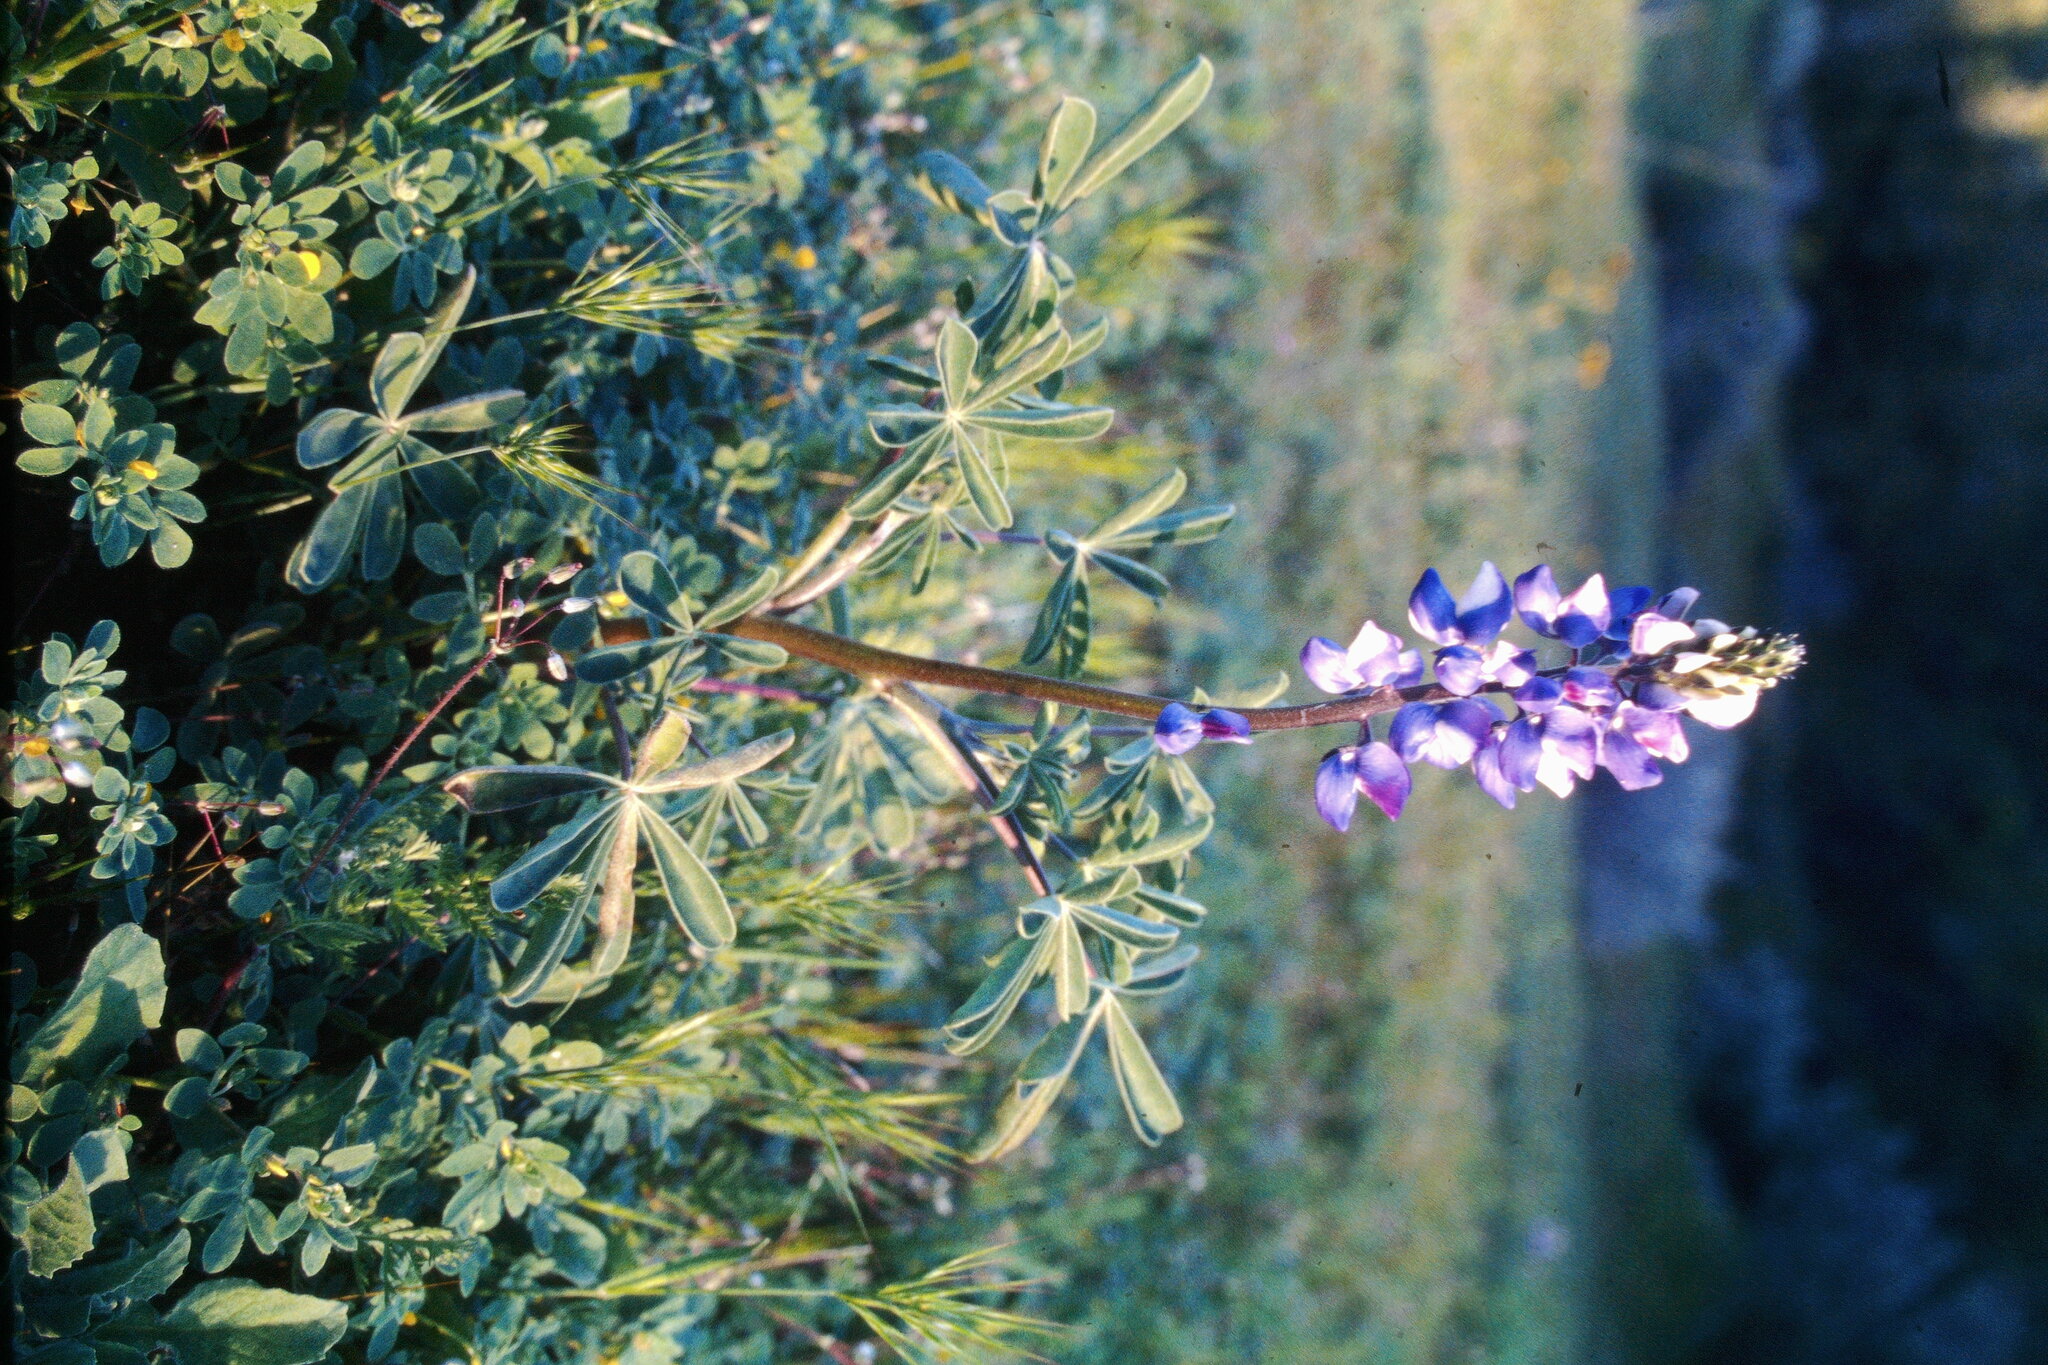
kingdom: Plantae
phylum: Tracheophyta
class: Magnoliopsida
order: Fabales
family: Fabaceae
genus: Lupinus
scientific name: Lupinus succulentus
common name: Arroyo lupine
